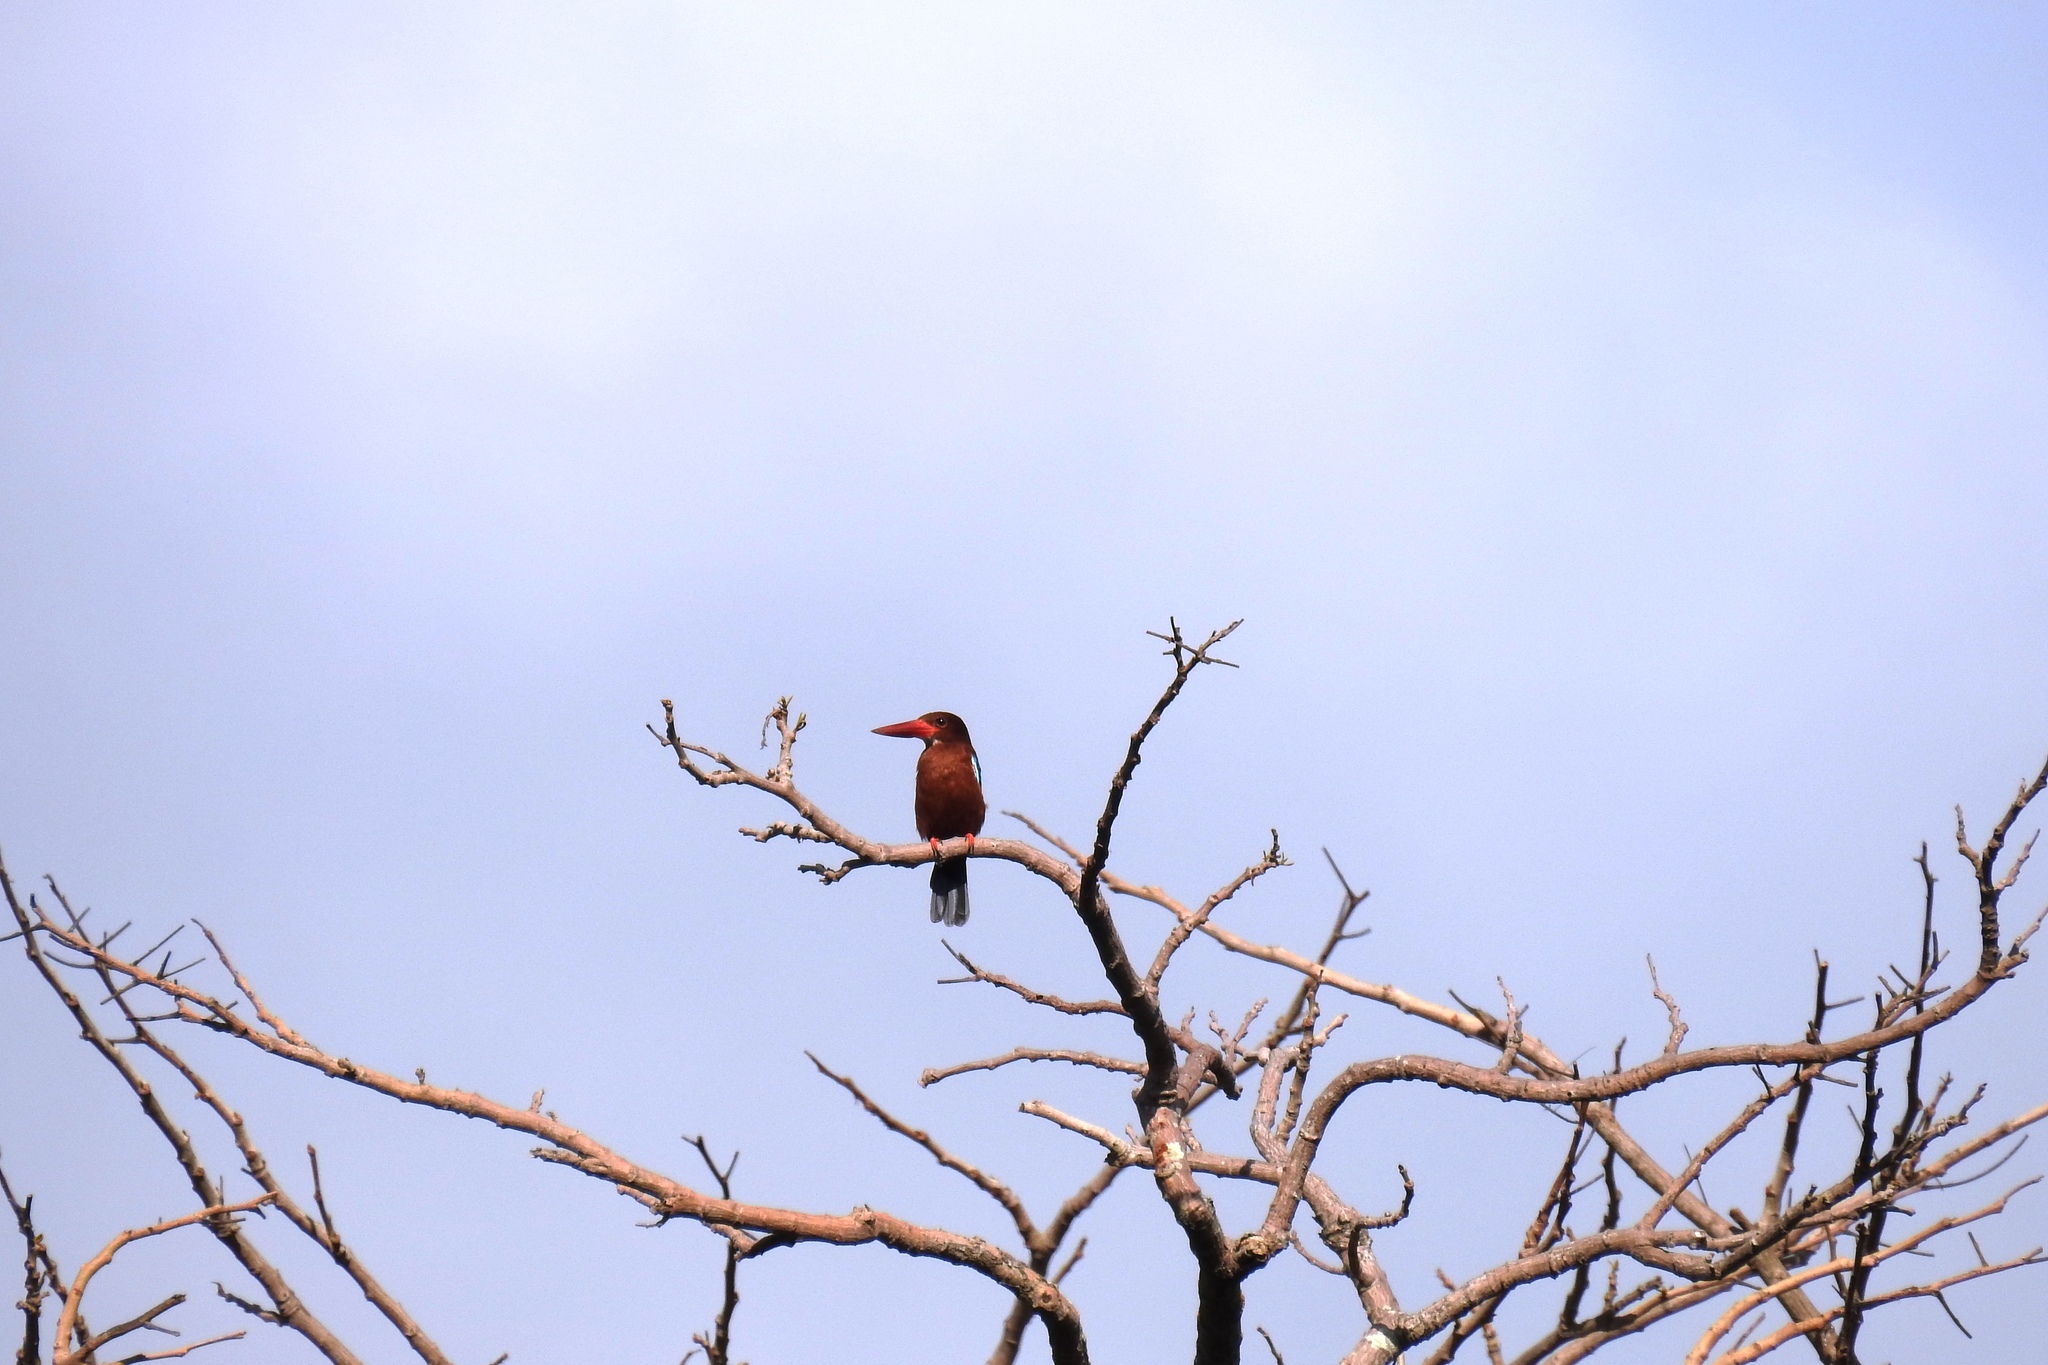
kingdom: Animalia
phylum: Chordata
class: Aves
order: Coraciiformes
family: Alcedinidae
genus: Halcyon
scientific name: Halcyon gularis
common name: Brown-breasted kingfisher
